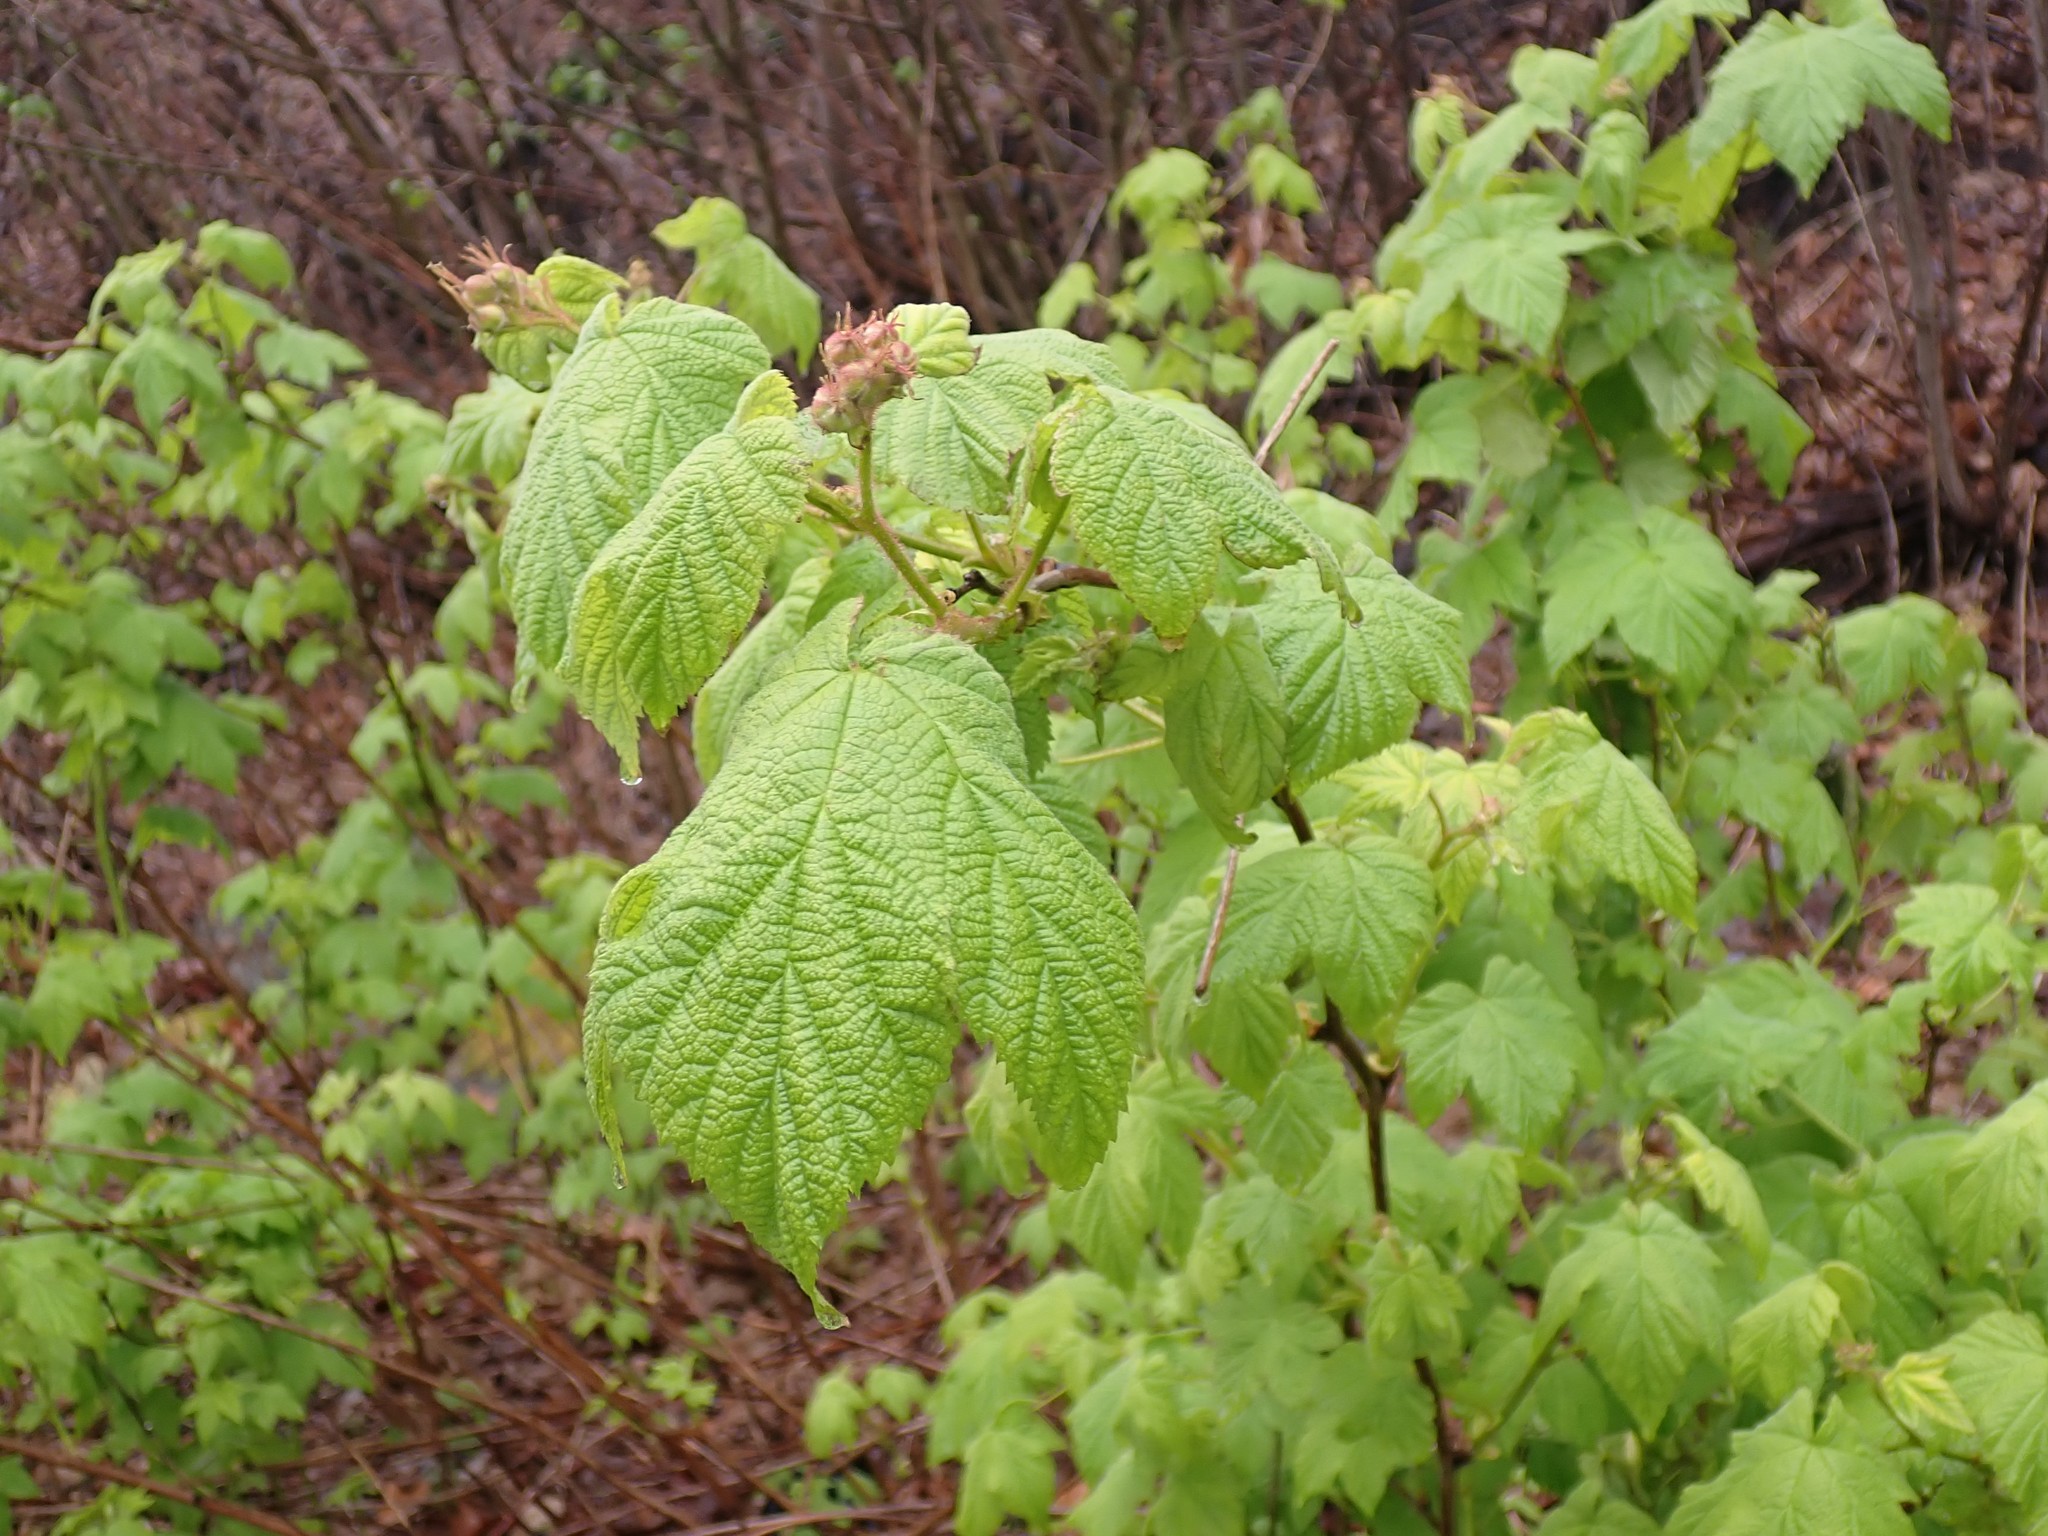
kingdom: Plantae
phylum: Tracheophyta
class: Magnoliopsida
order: Rosales
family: Rosaceae
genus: Rubus
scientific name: Rubus parviflorus
